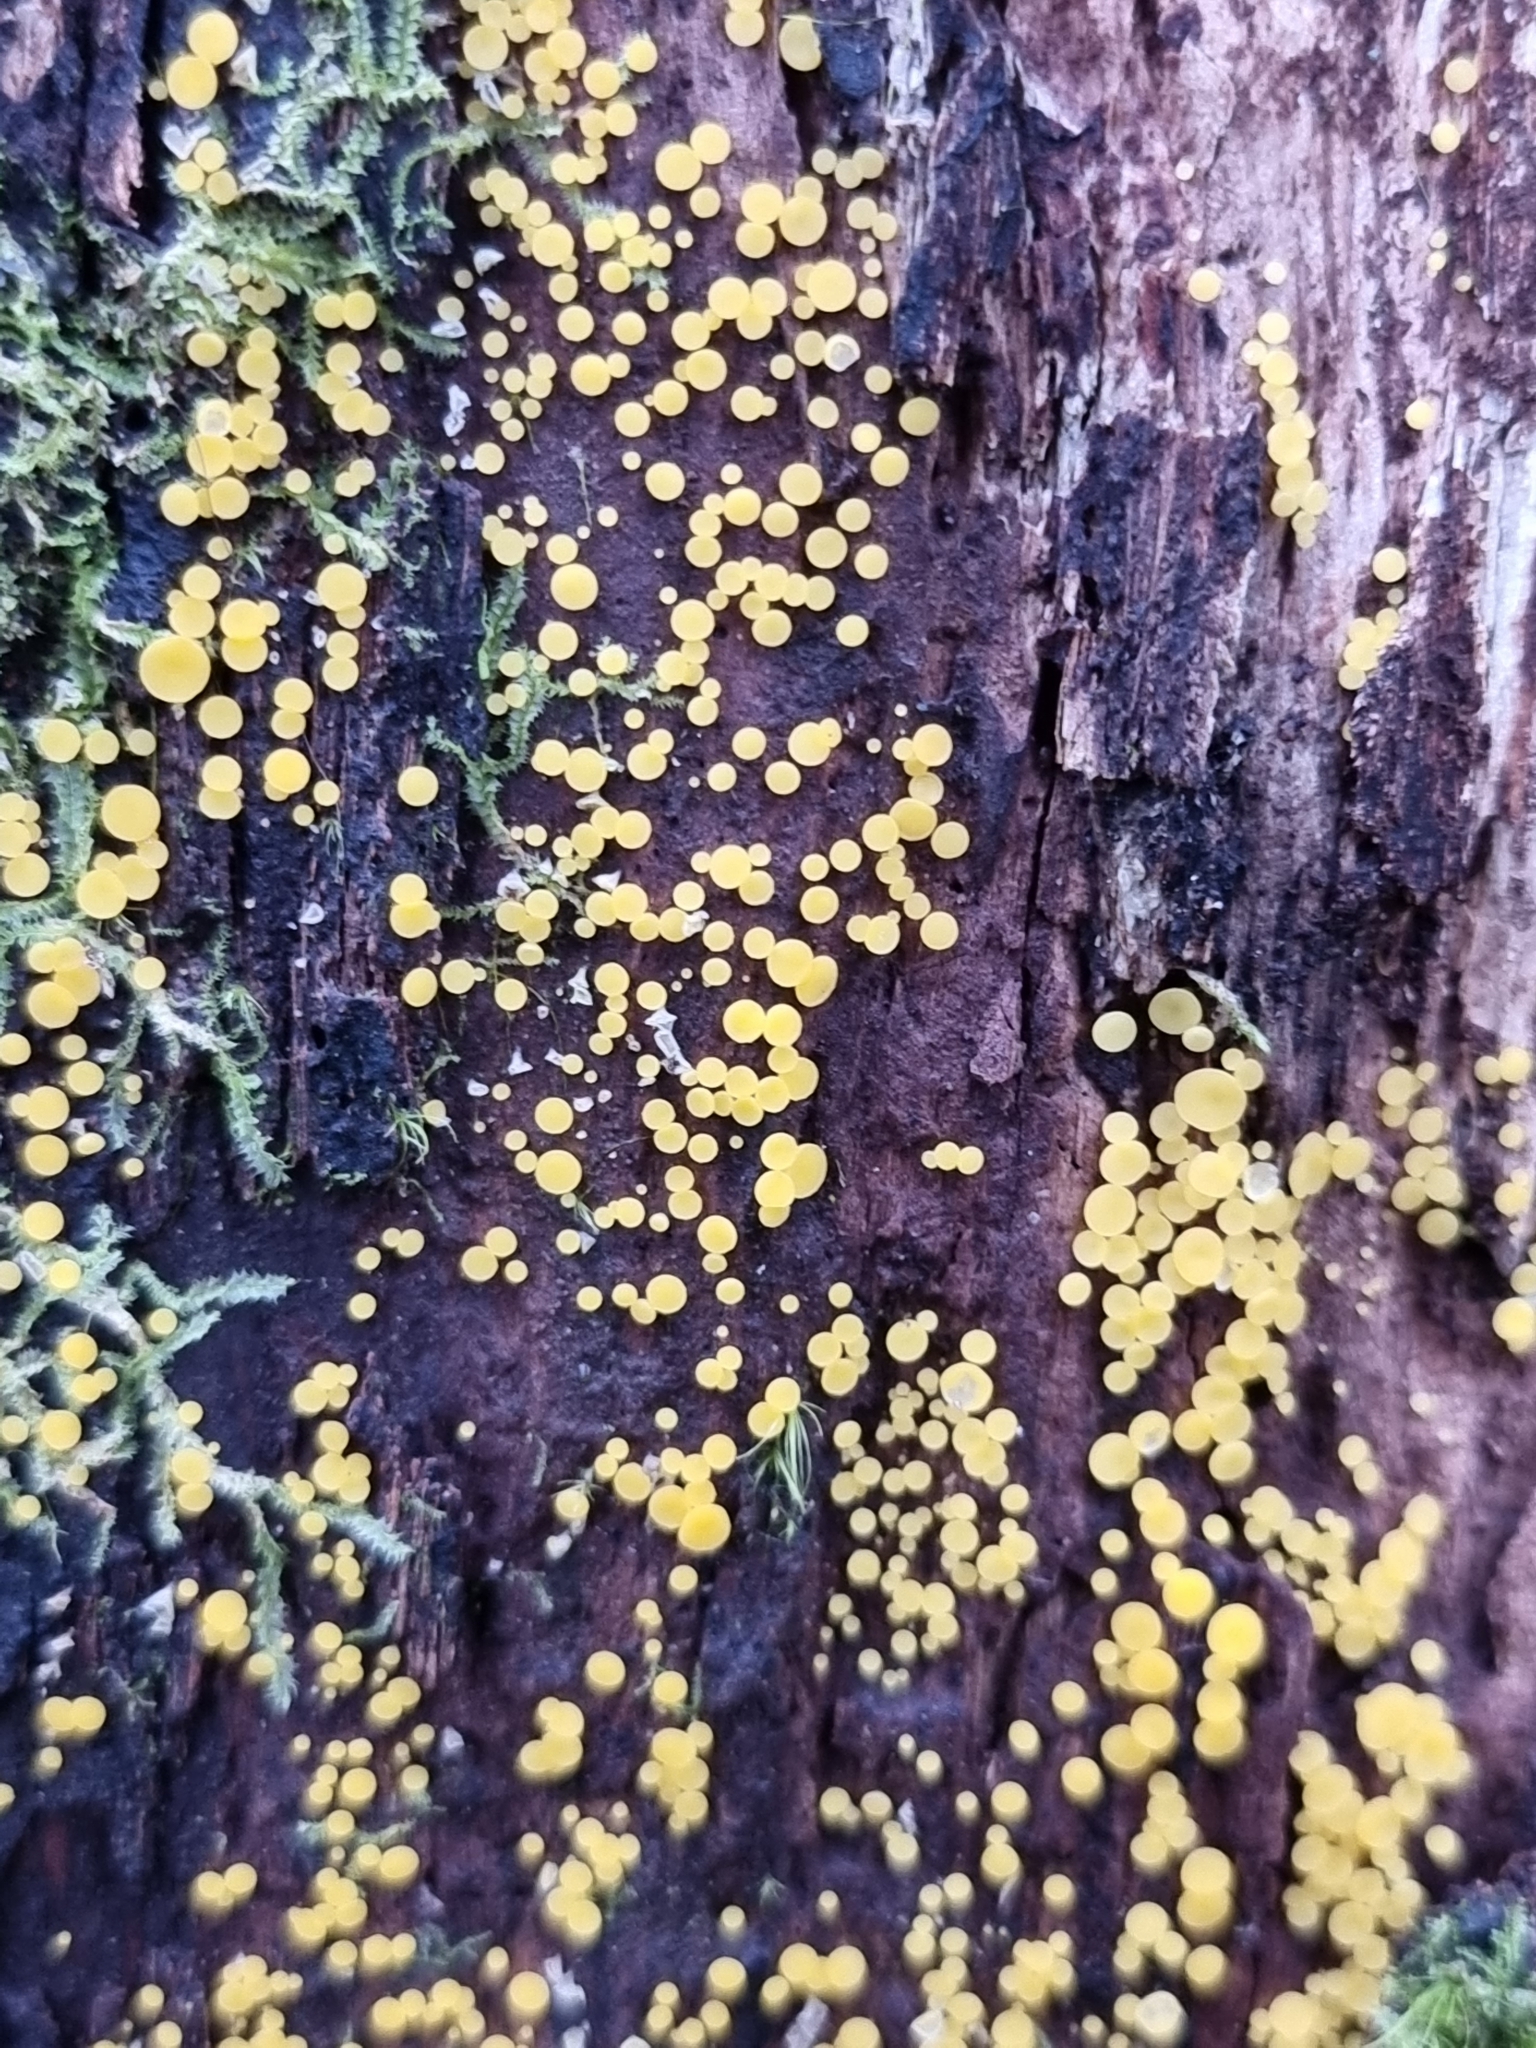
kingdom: Fungi
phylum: Ascomycota
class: Leotiomycetes
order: Helotiales
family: Pezizellaceae
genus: Calycina
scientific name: Calycina citrina
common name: Yellow fairy cups
